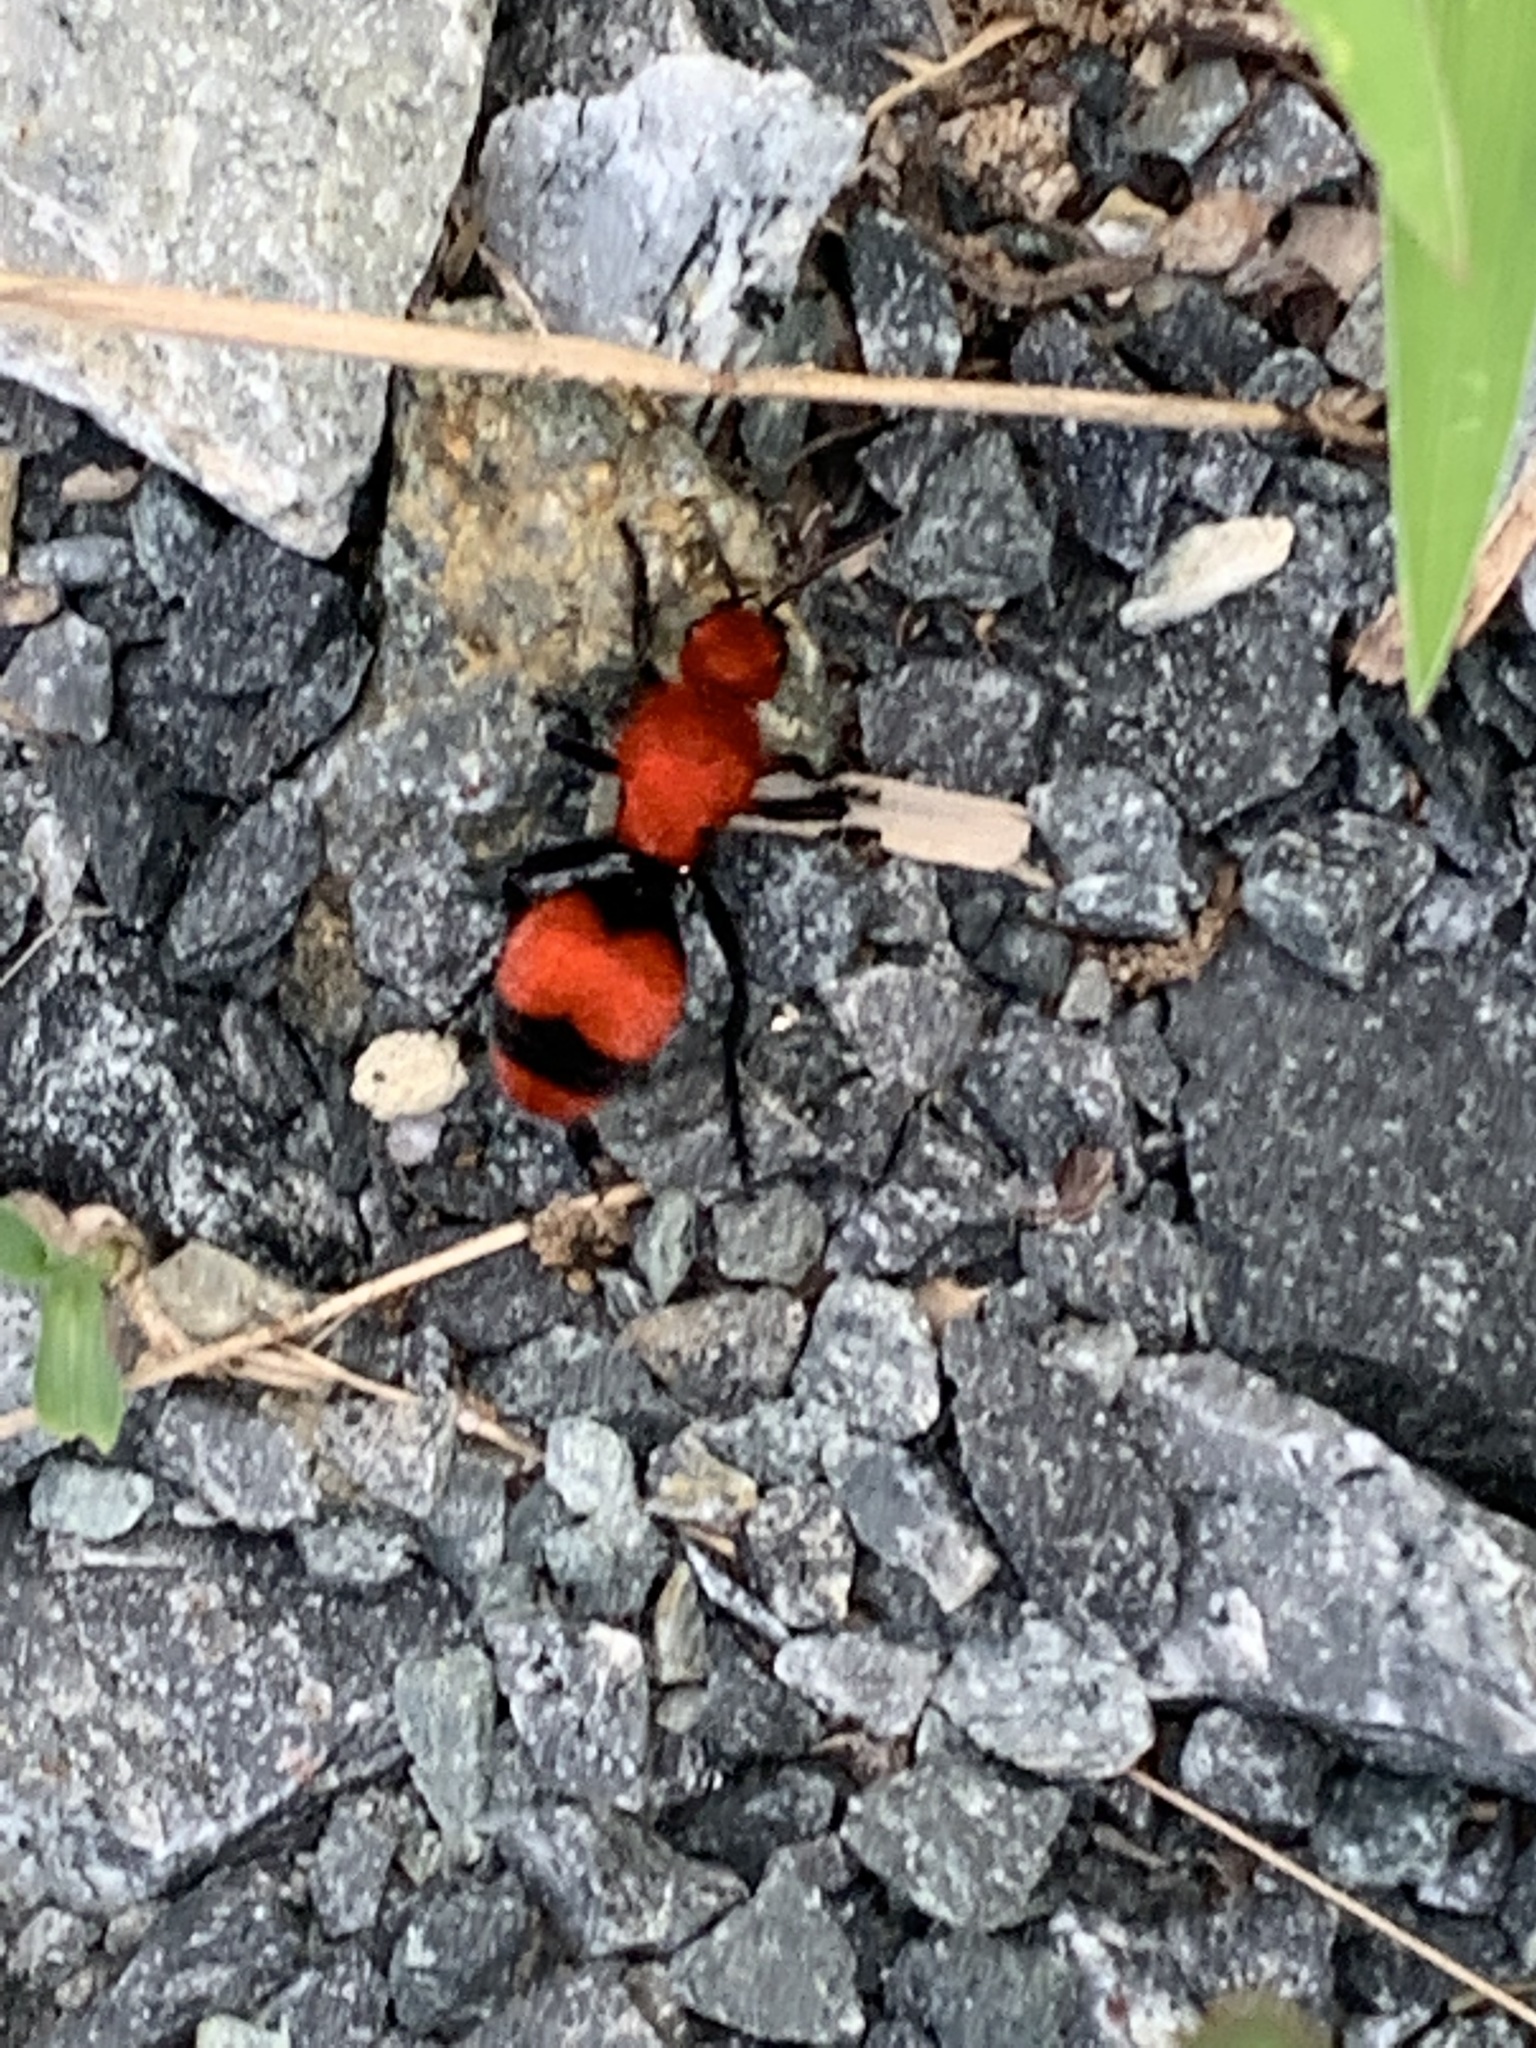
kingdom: Animalia
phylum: Arthropoda
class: Insecta
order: Hymenoptera
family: Mutillidae
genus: Dasymutilla
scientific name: Dasymutilla occidentalis
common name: Common eastern velvet ant
